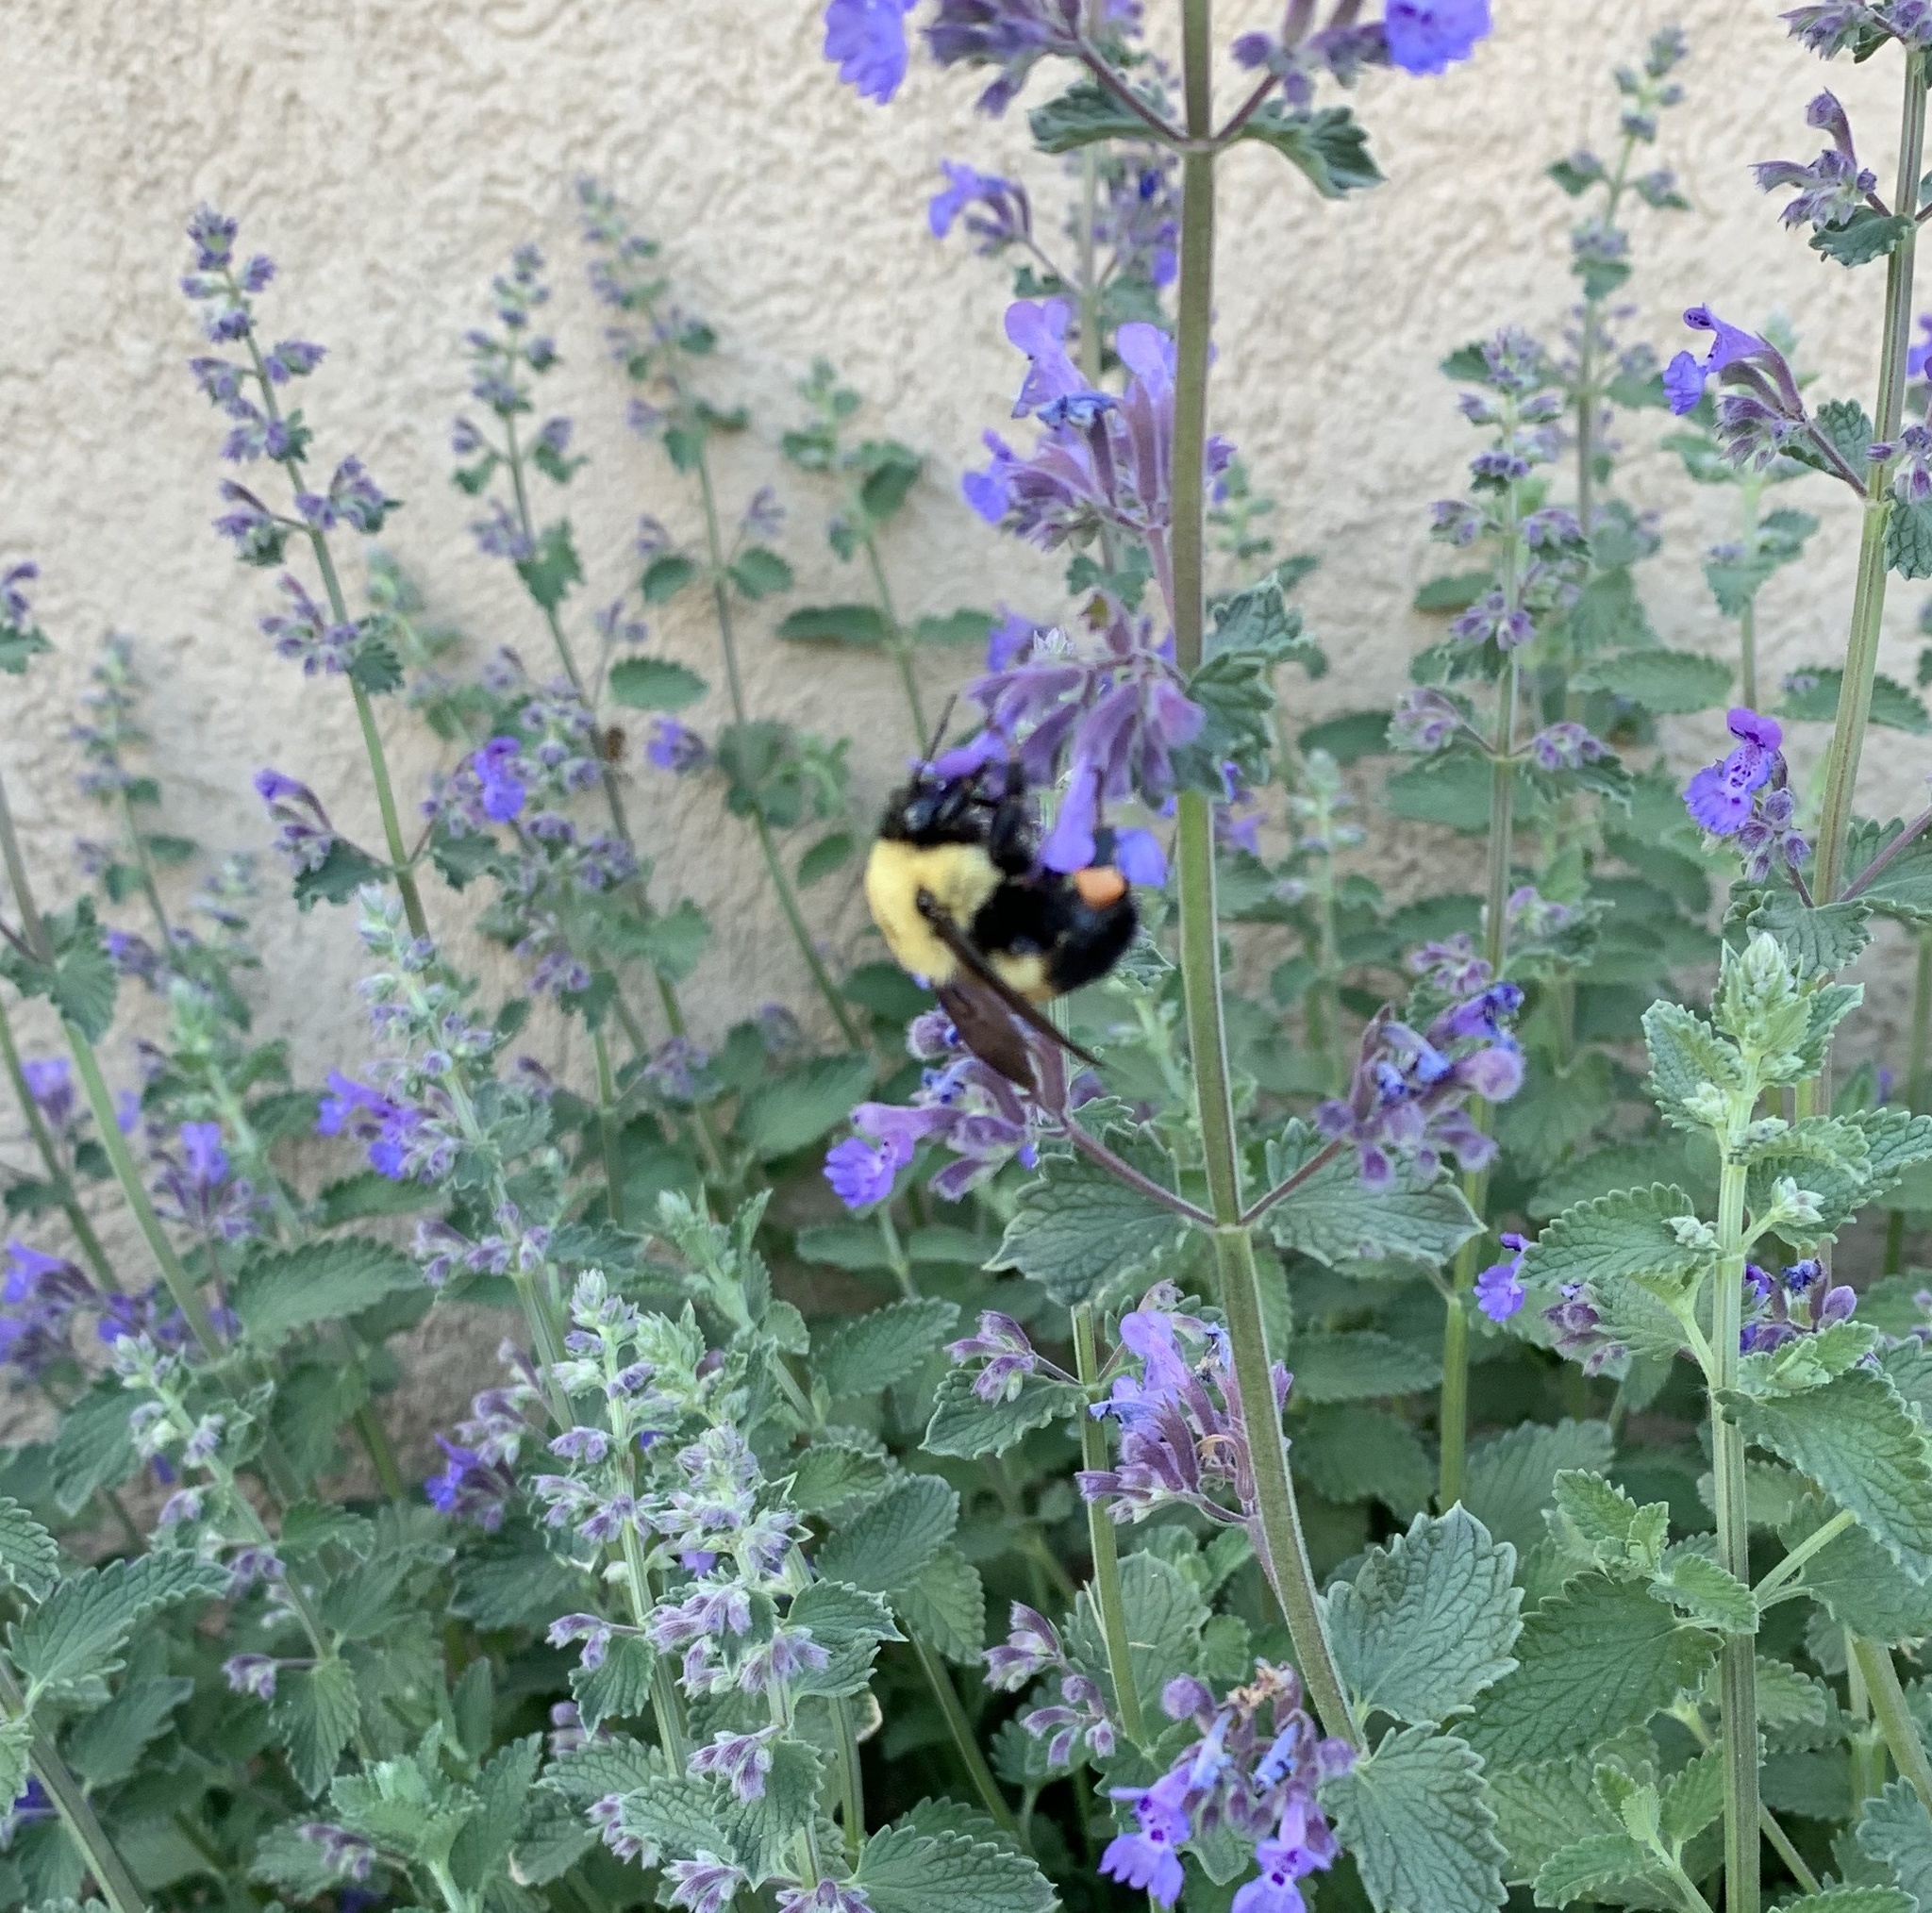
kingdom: Animalia
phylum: Arthropoda
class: Insecta
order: Hymenoptera
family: Apidae
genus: Bombus
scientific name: Bombus griseocollis
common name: Brown-belted bumble bee
